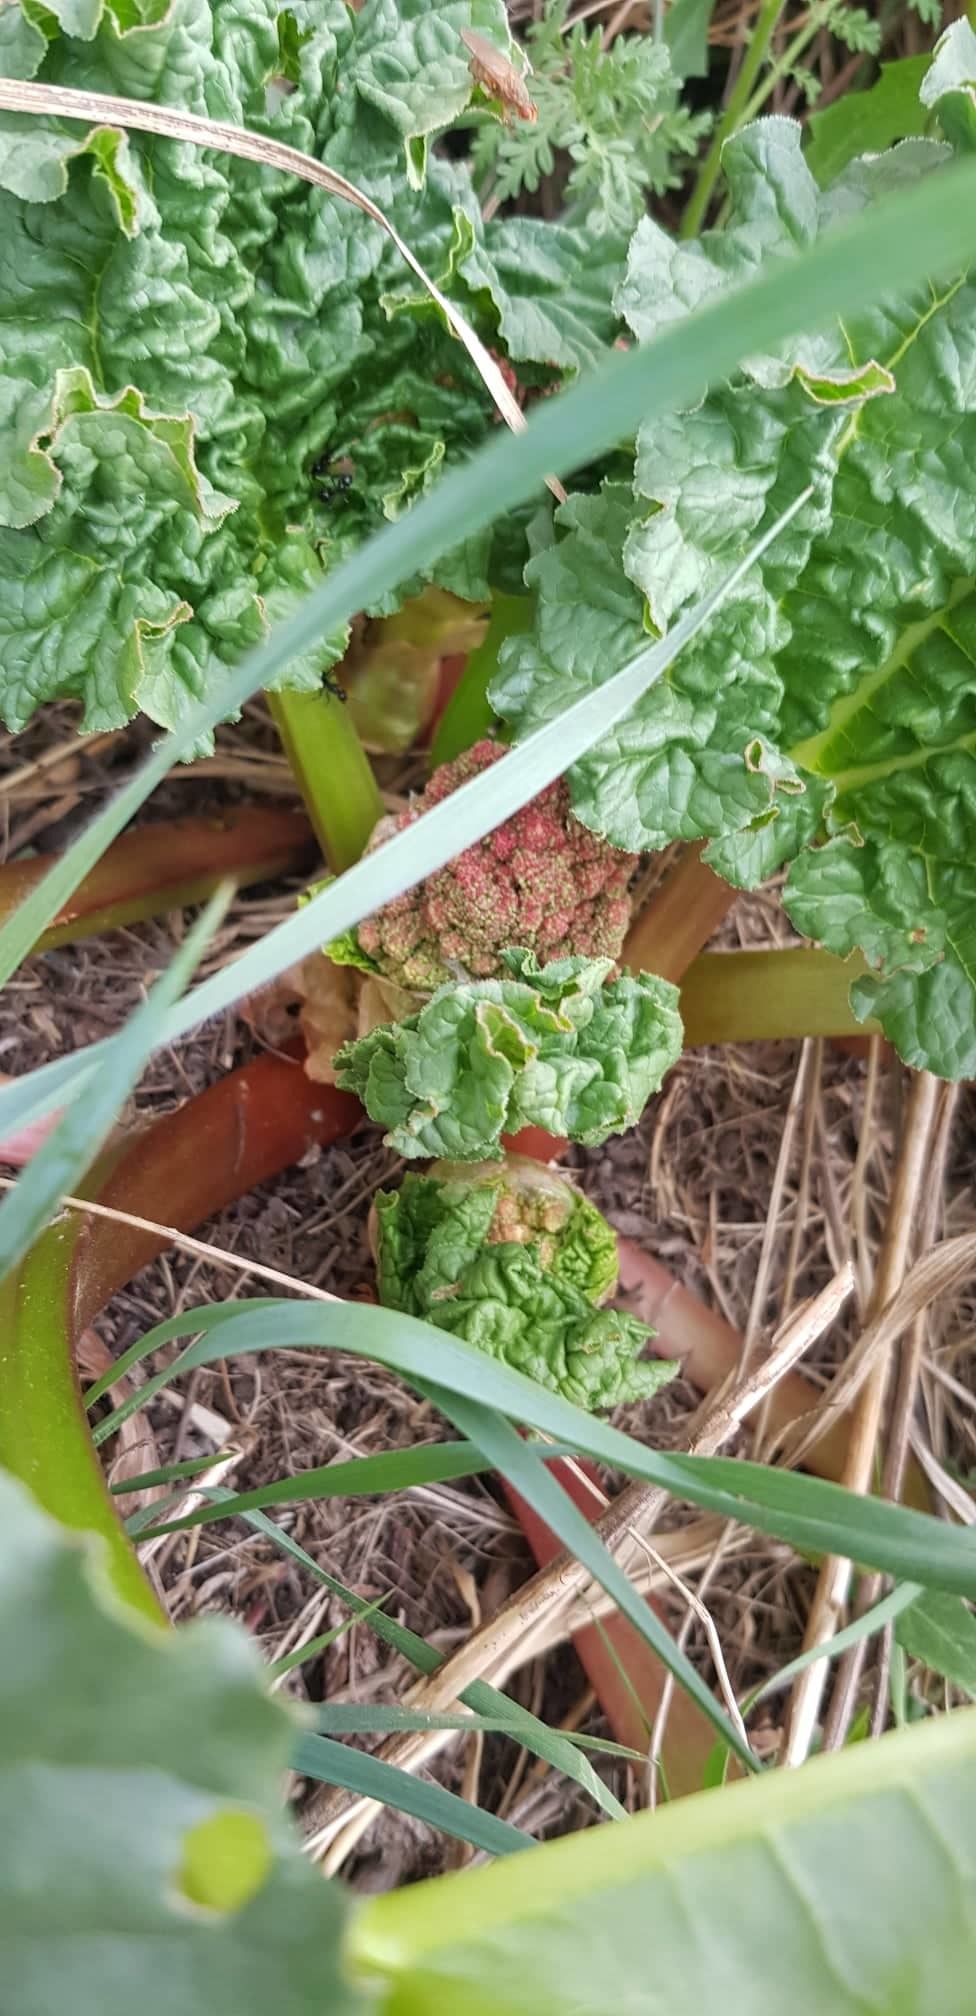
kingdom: Plantae
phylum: Tracheophyta
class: Magnoliopsida
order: Caryophyllales
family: Polygonaceae
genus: Rheum
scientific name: Rheum rhabarbarum
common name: Garden rhubarb
